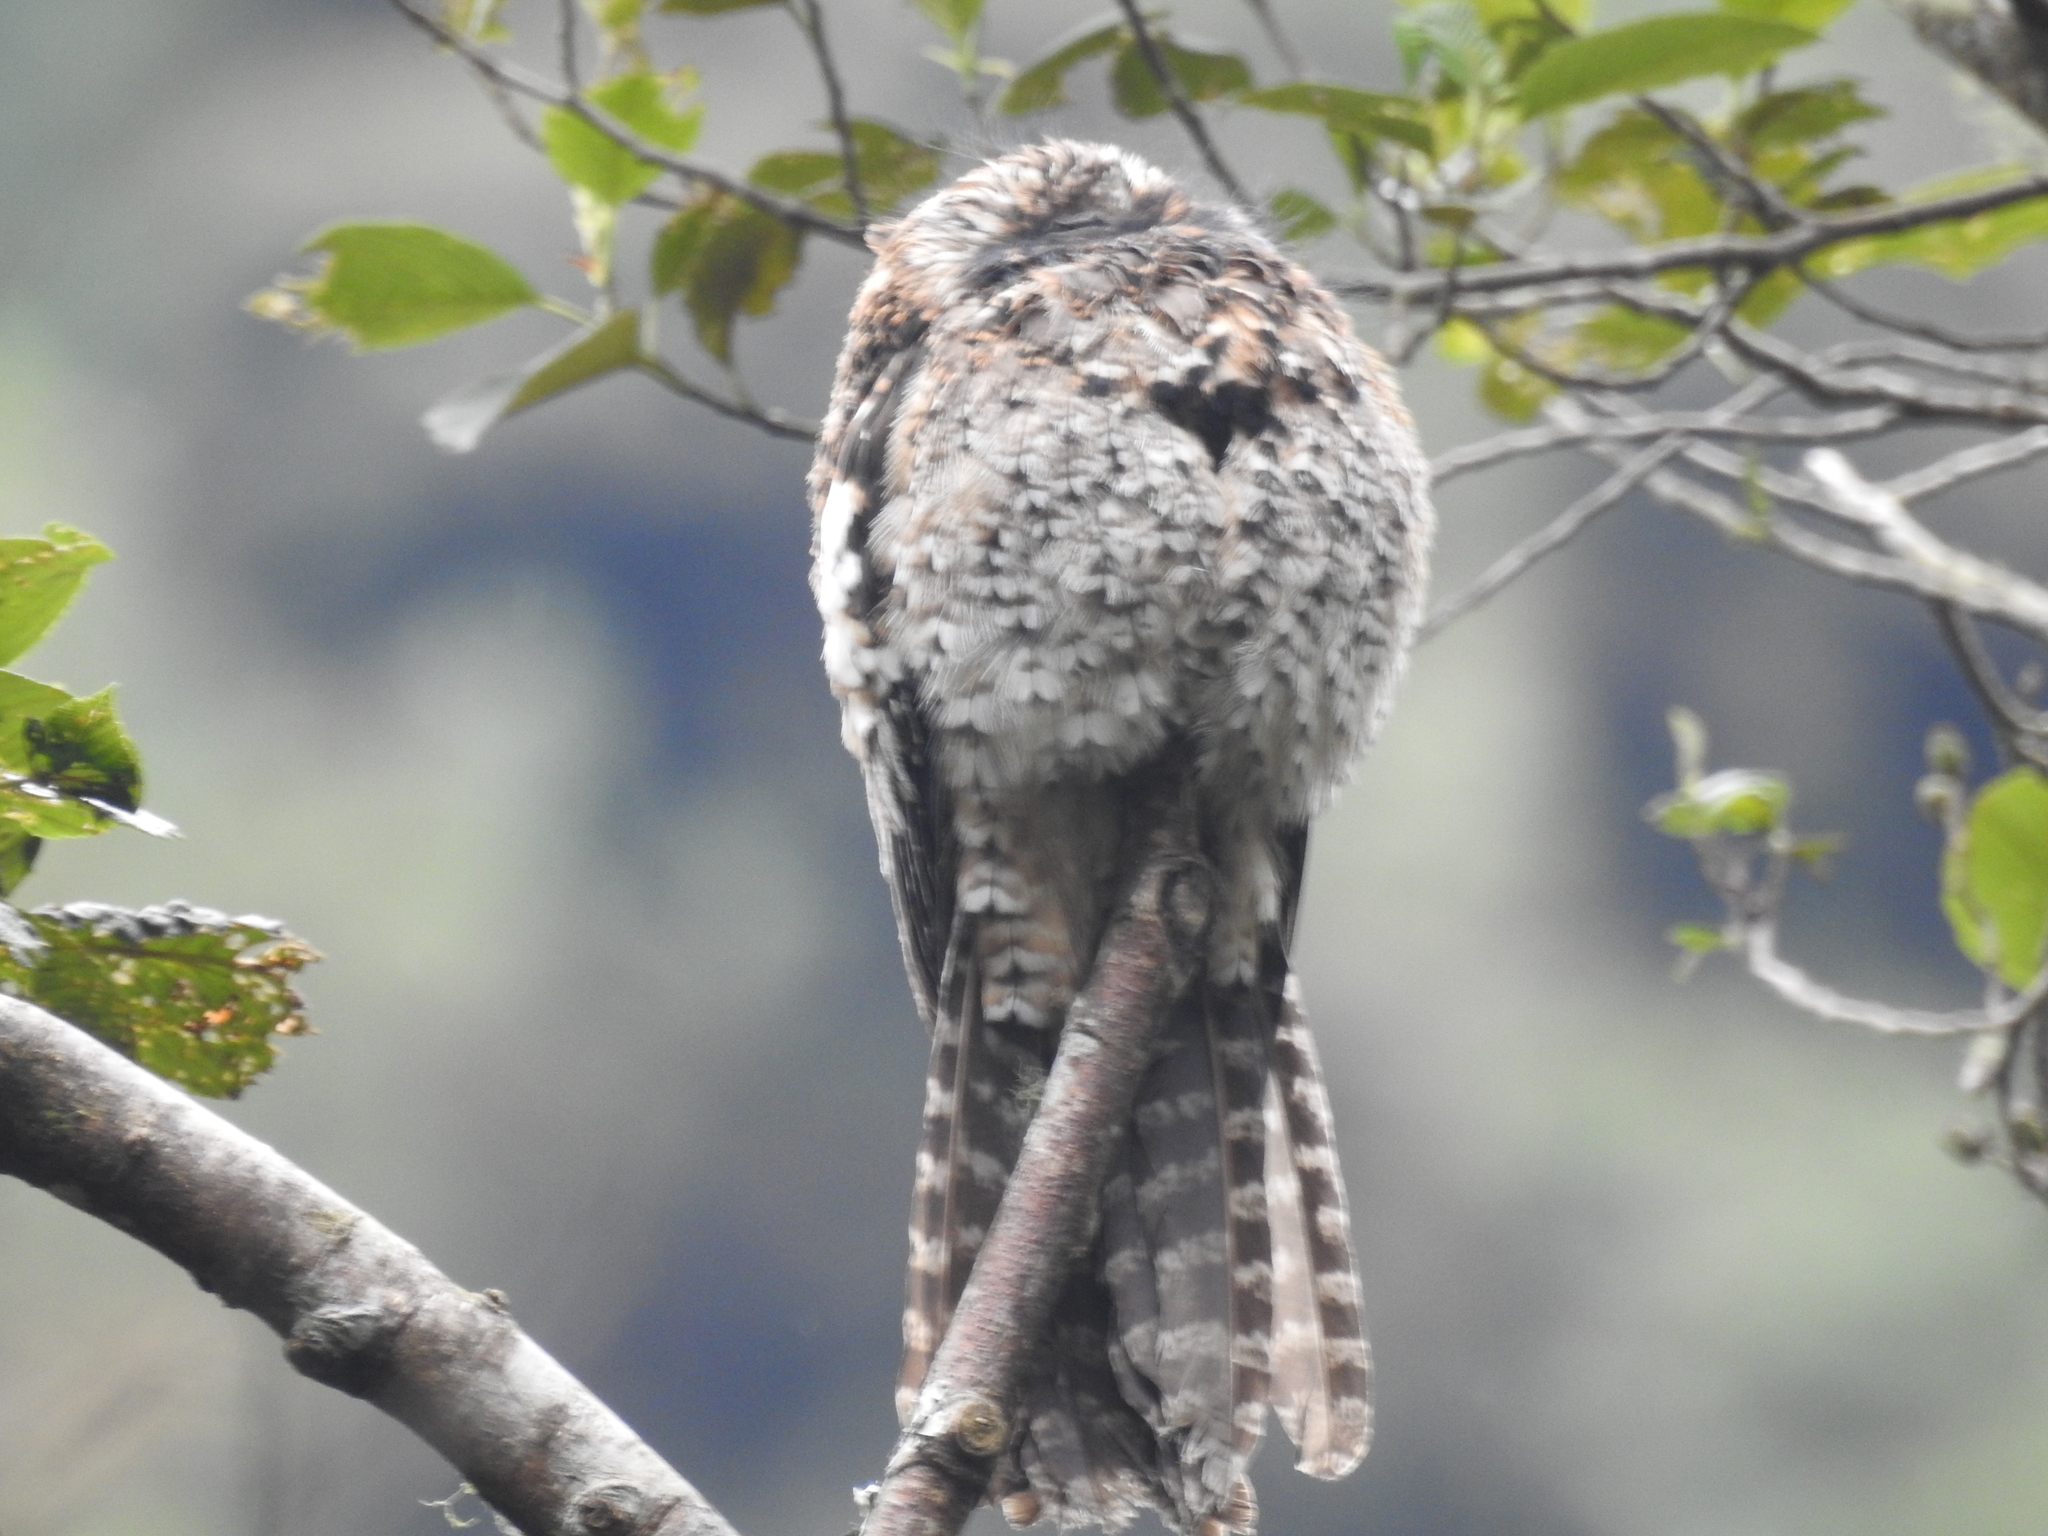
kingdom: Animalia
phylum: Chordata
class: Aves
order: Nyctibiiformes
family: Nyctibiidae
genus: Nyctibius
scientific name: Nyctibius maculosus
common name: Andean potoo
